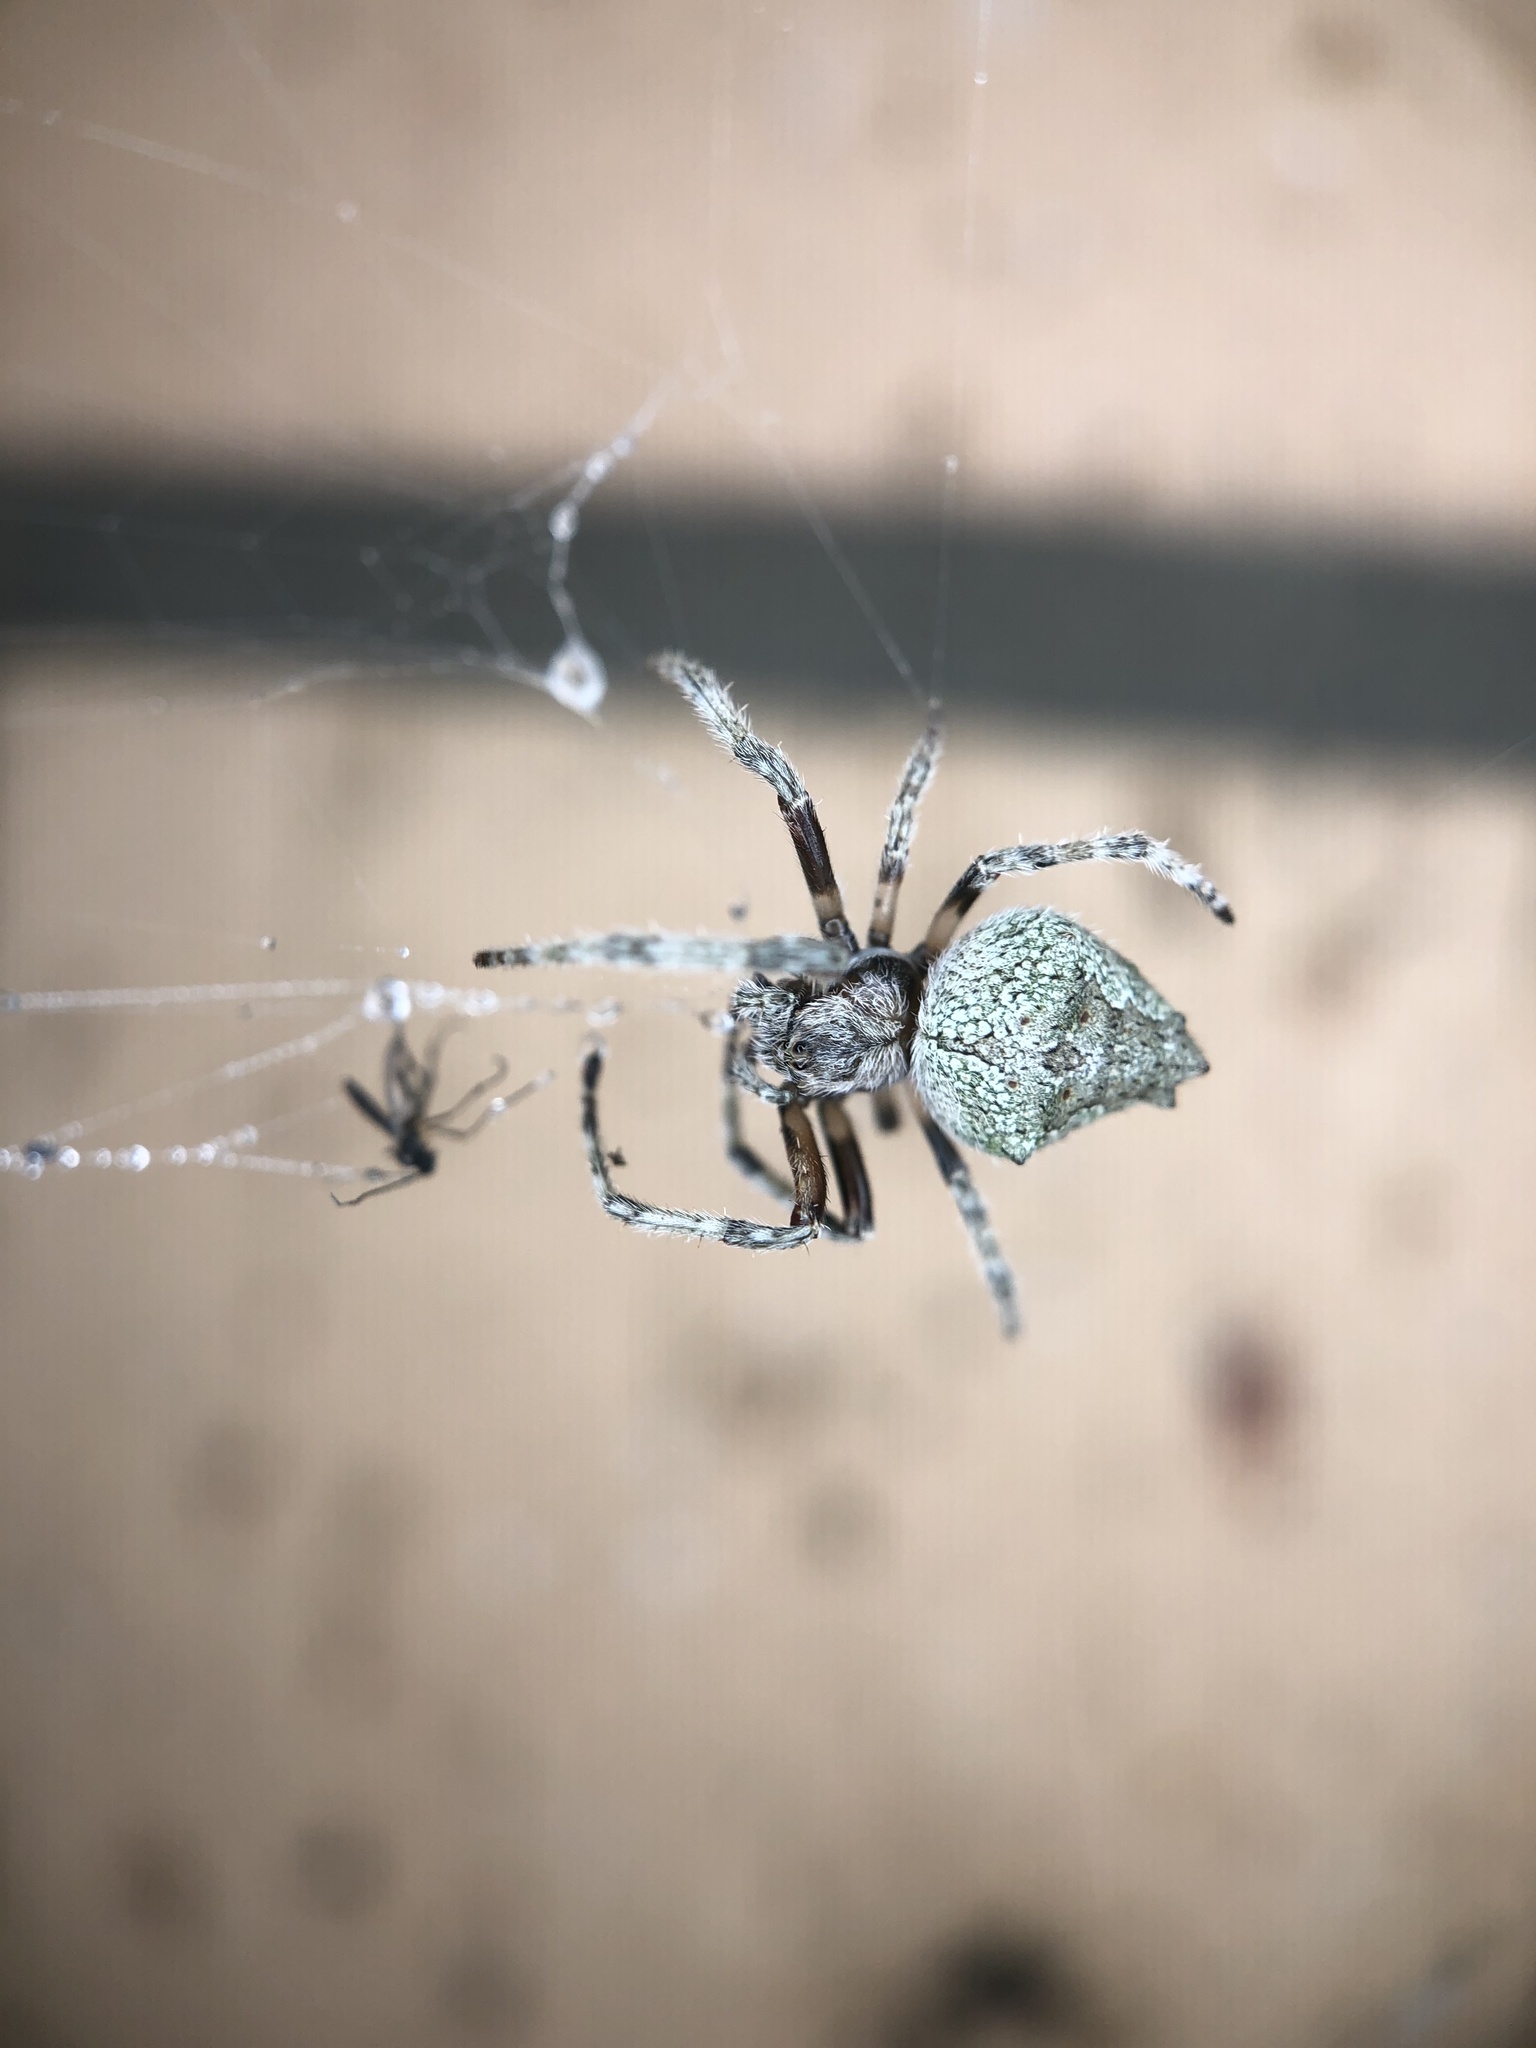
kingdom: Animalia
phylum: Arthropoda
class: Arachnida
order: Araneae
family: Araneidae
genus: Eriophora
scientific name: Eriophora pustulosa
